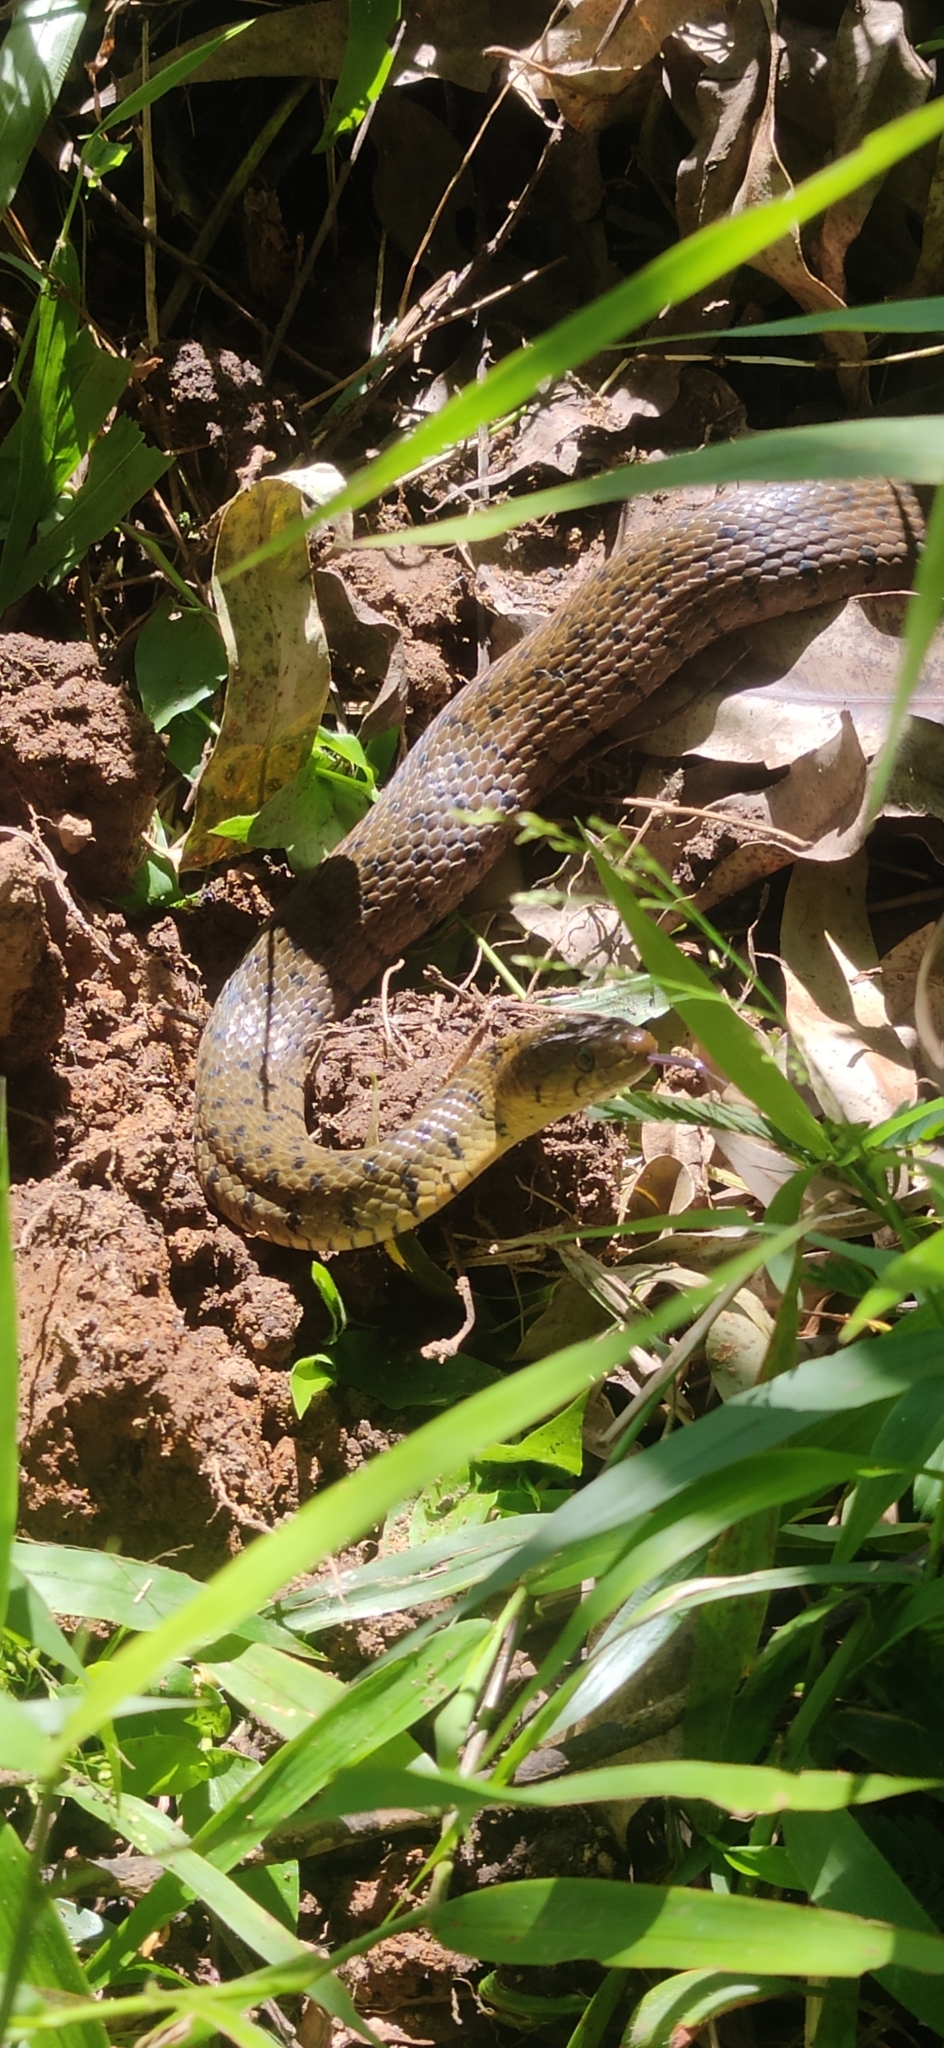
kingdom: Animalia
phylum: Chordata
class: Squamata
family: Colubridae
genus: Fowlea
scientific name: Fowlea piscator
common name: Asiatic water snake
